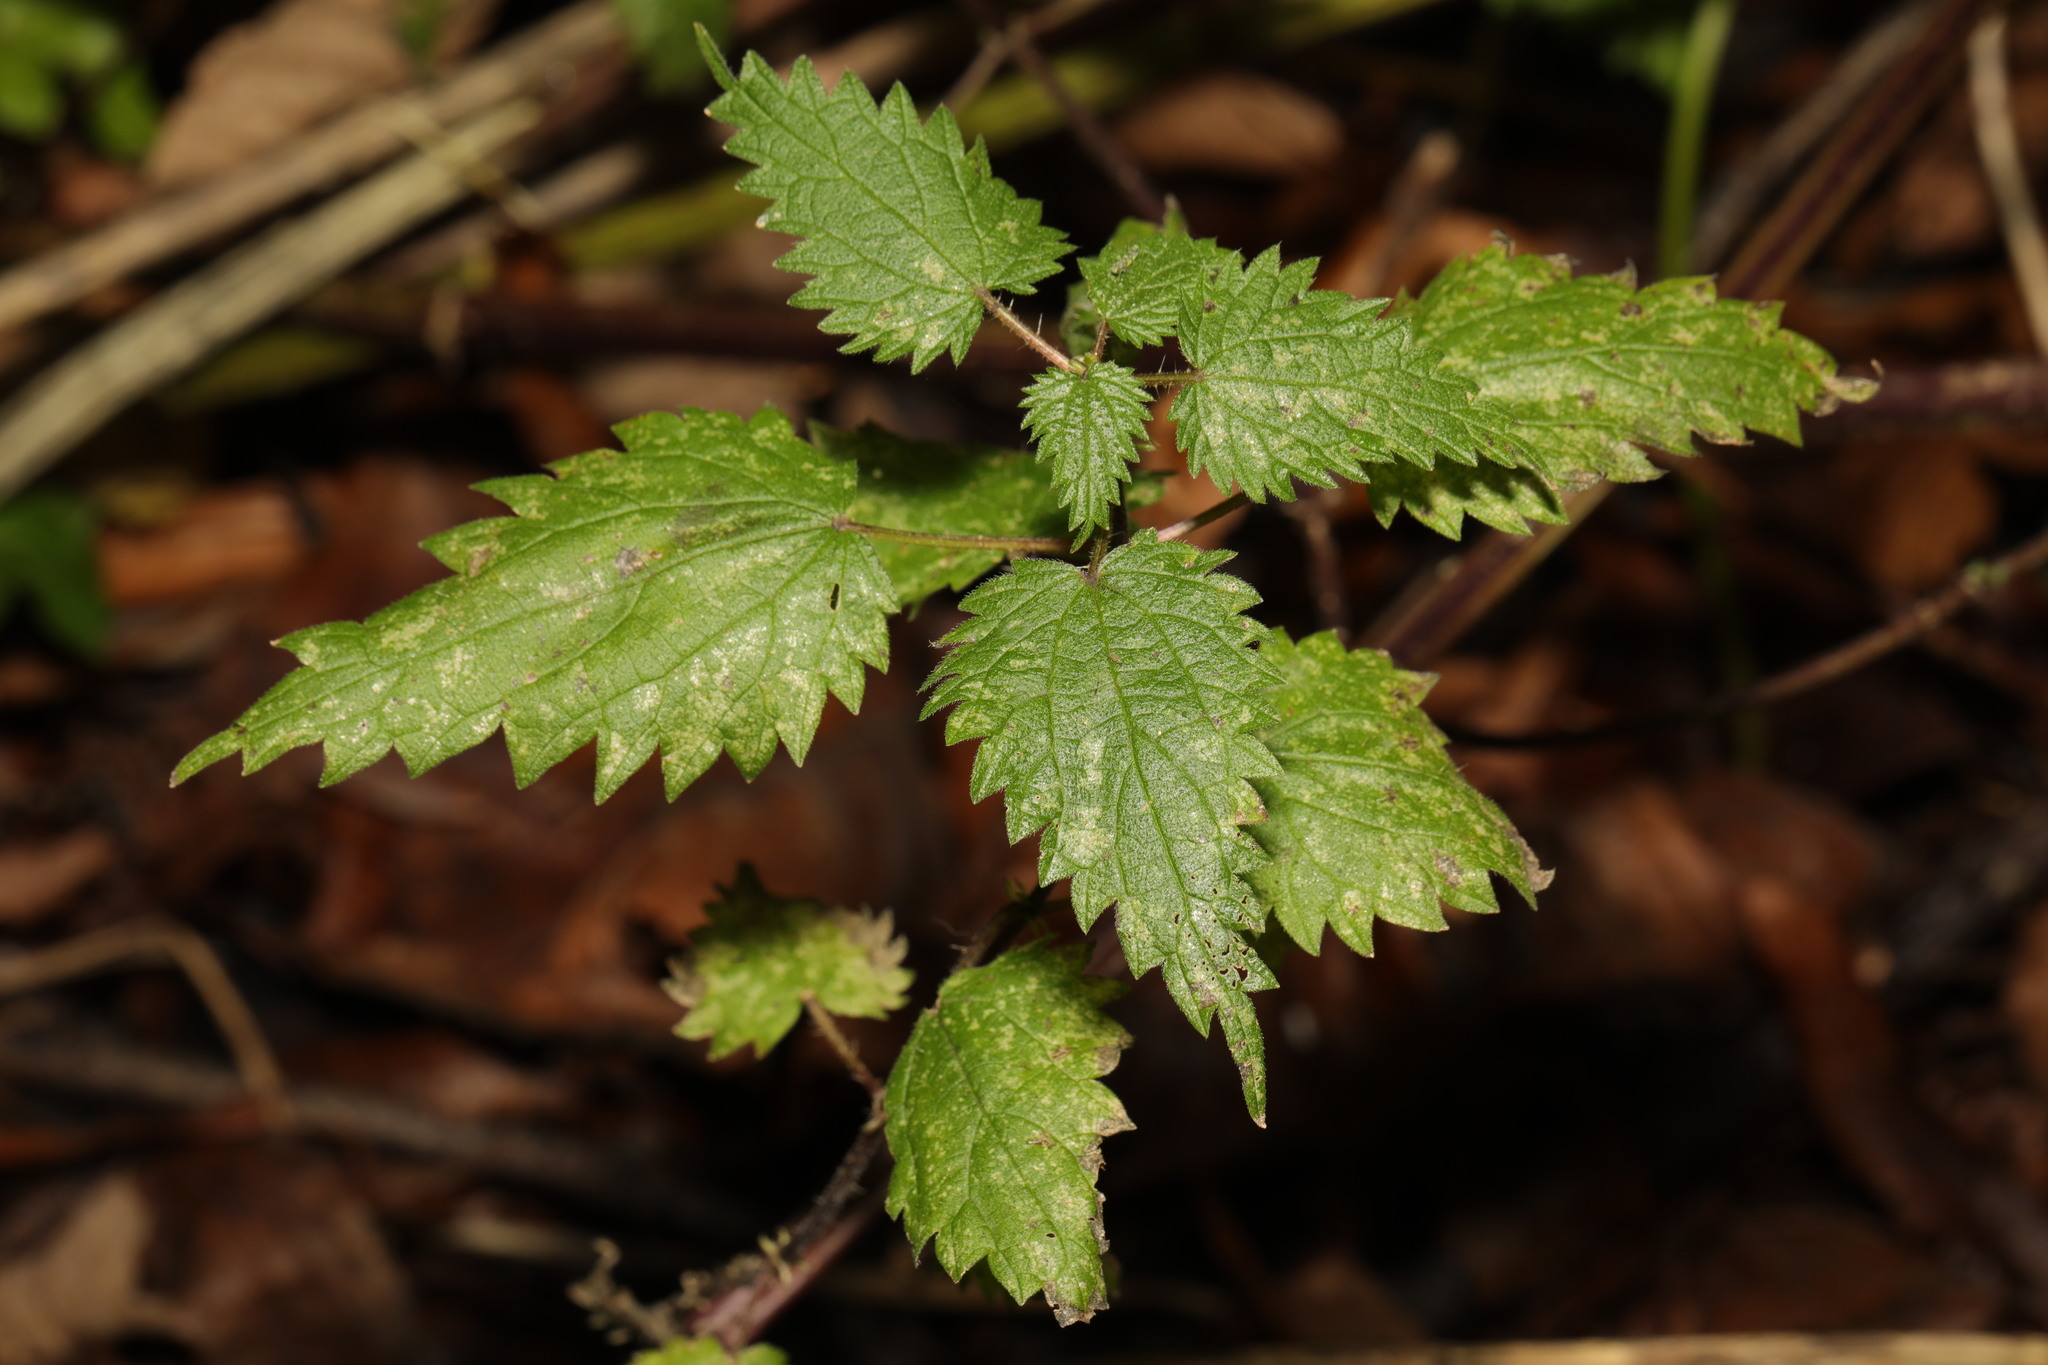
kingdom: Plantae
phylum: Tracheophyta
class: Magnoliopsida
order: Rosales
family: Urticaceae
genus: Urtica
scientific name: Urtica dioica
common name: Common nettle
